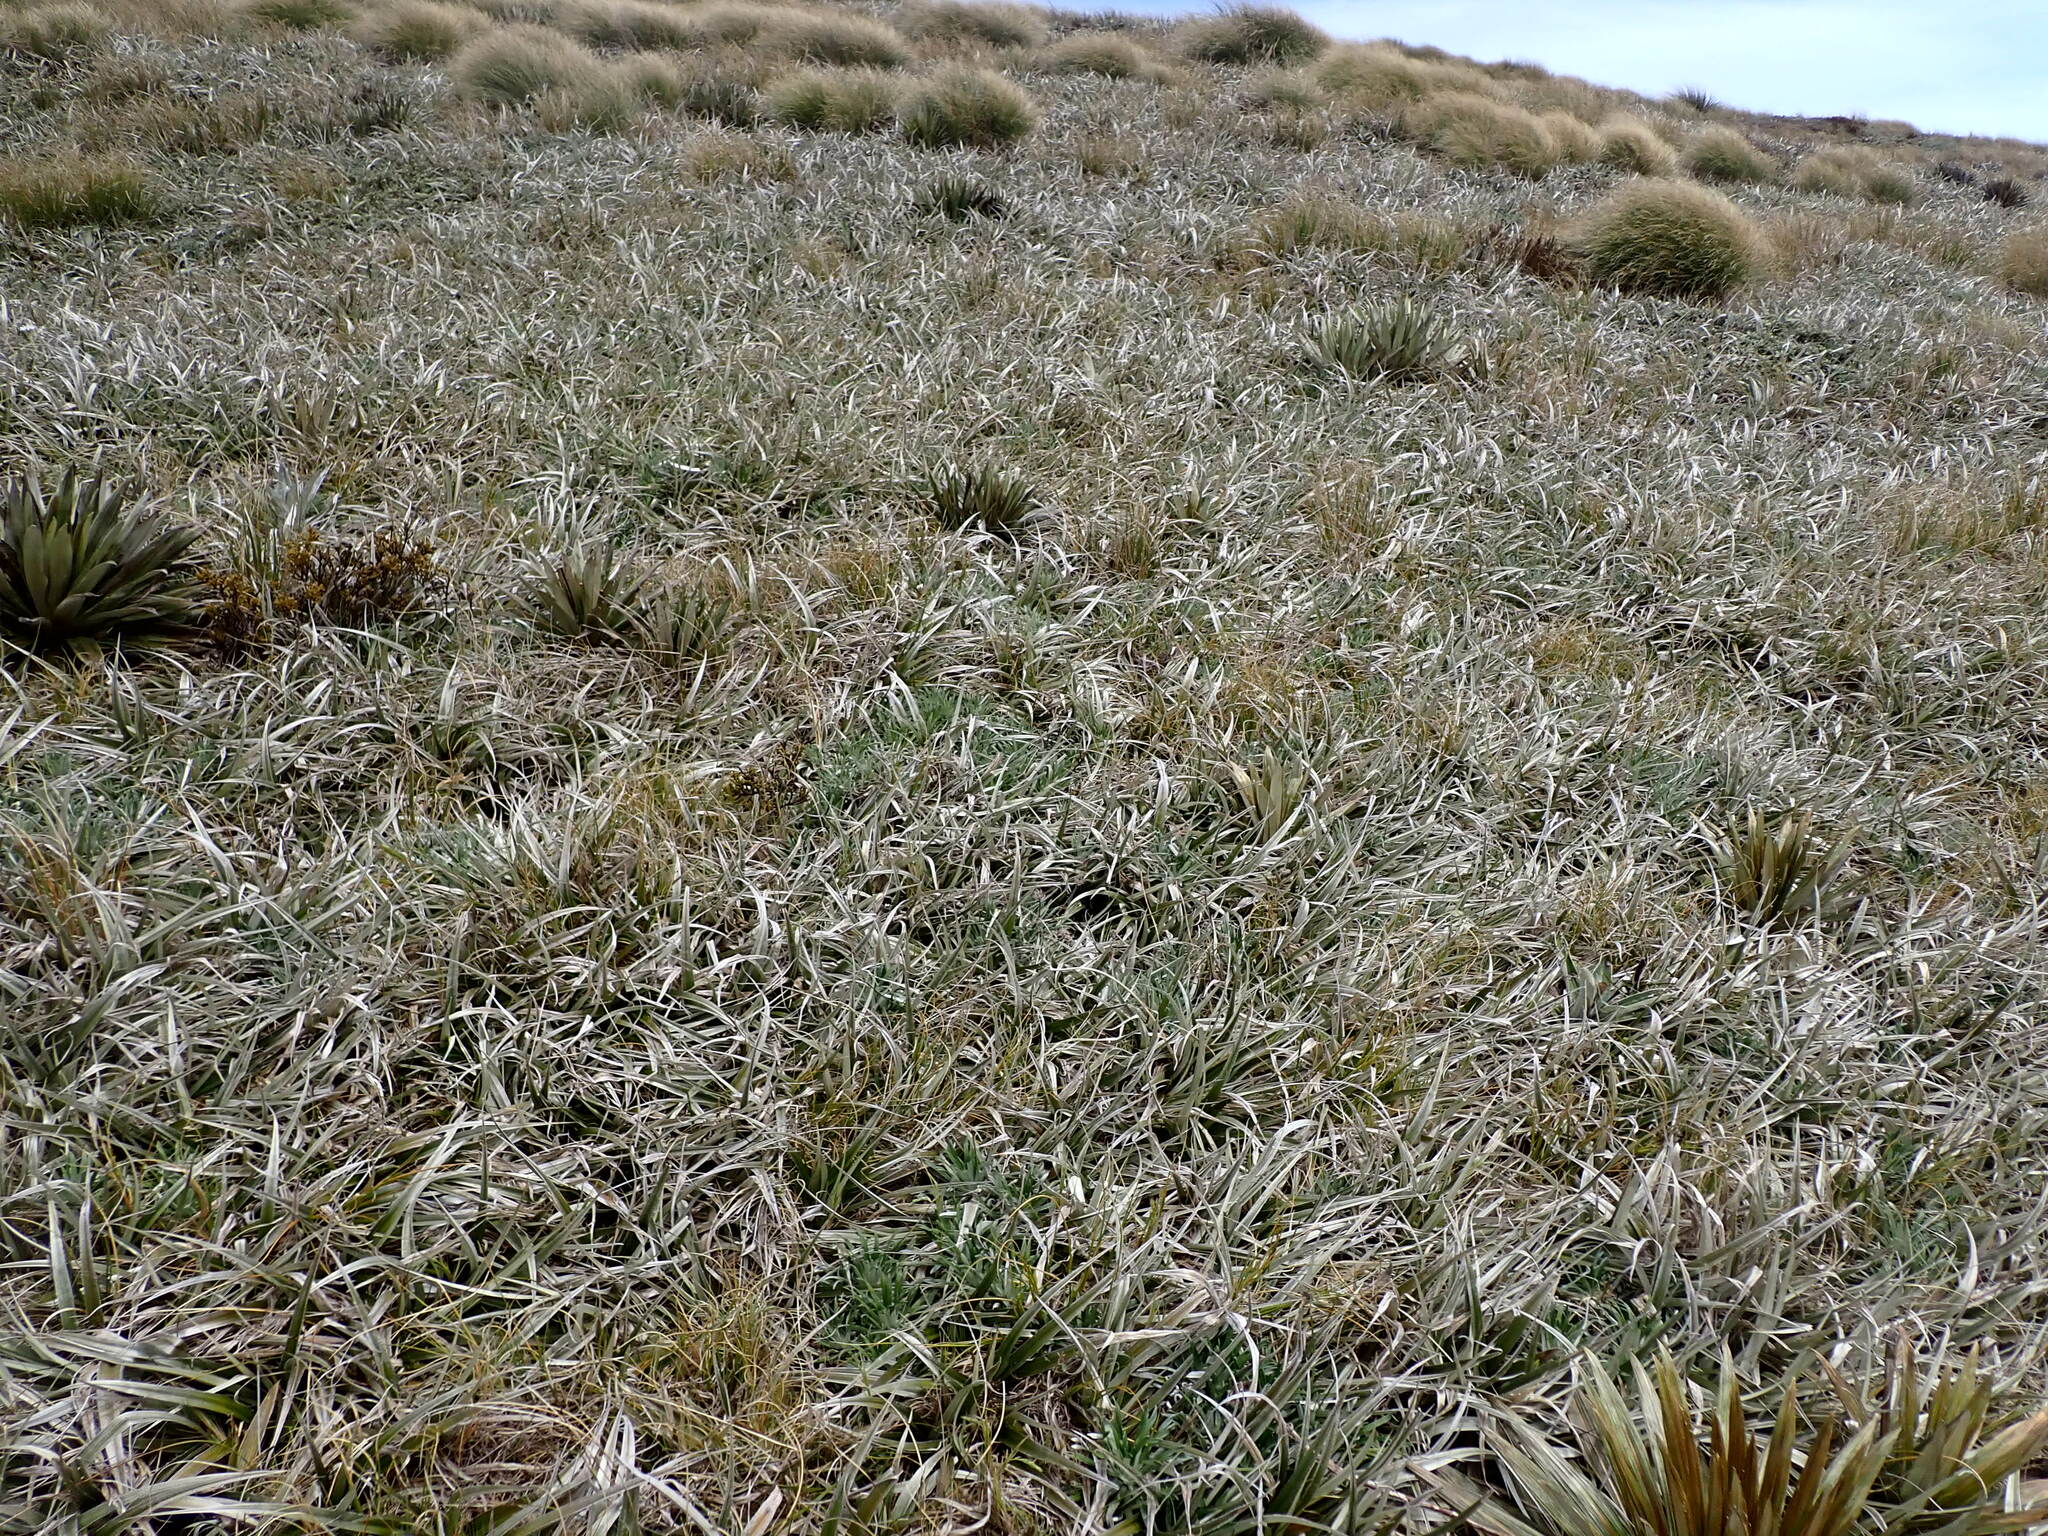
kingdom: Plantae
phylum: Tracheophyta
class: Liliopsida
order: Asparagales
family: Asteliaceae
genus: Astelia
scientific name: Astelia nivicola
